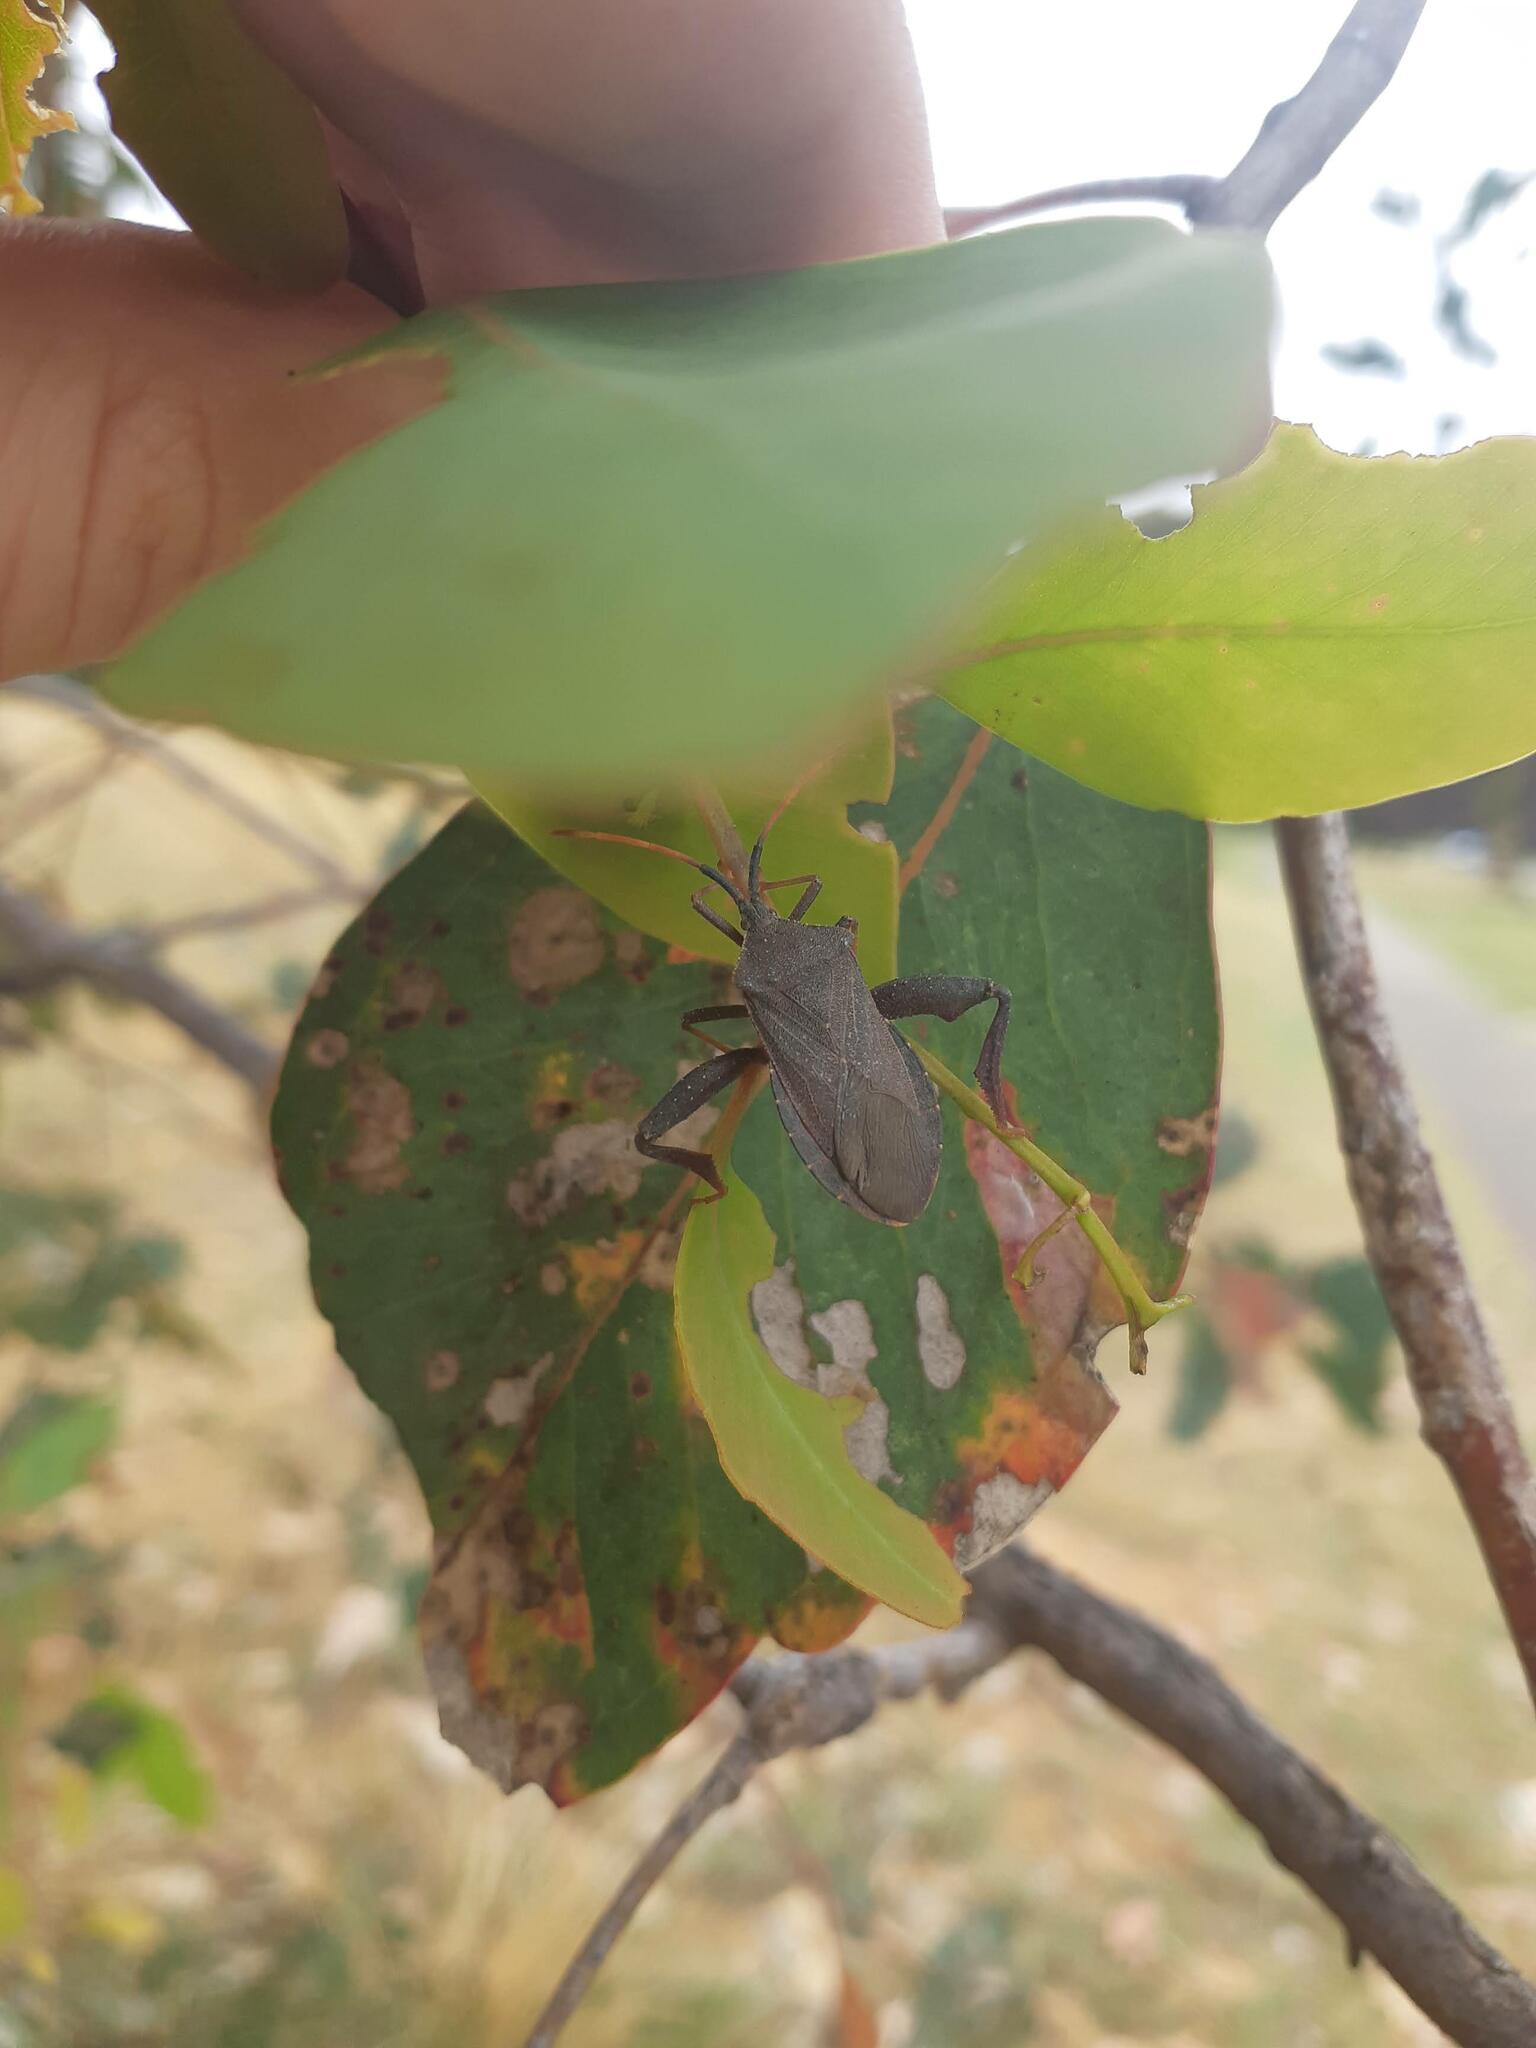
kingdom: Animalia
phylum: Arthropoda
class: Insecta
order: Hemiptera
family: Coreidae
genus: Amorbus
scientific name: Amorbus rubiginosus
